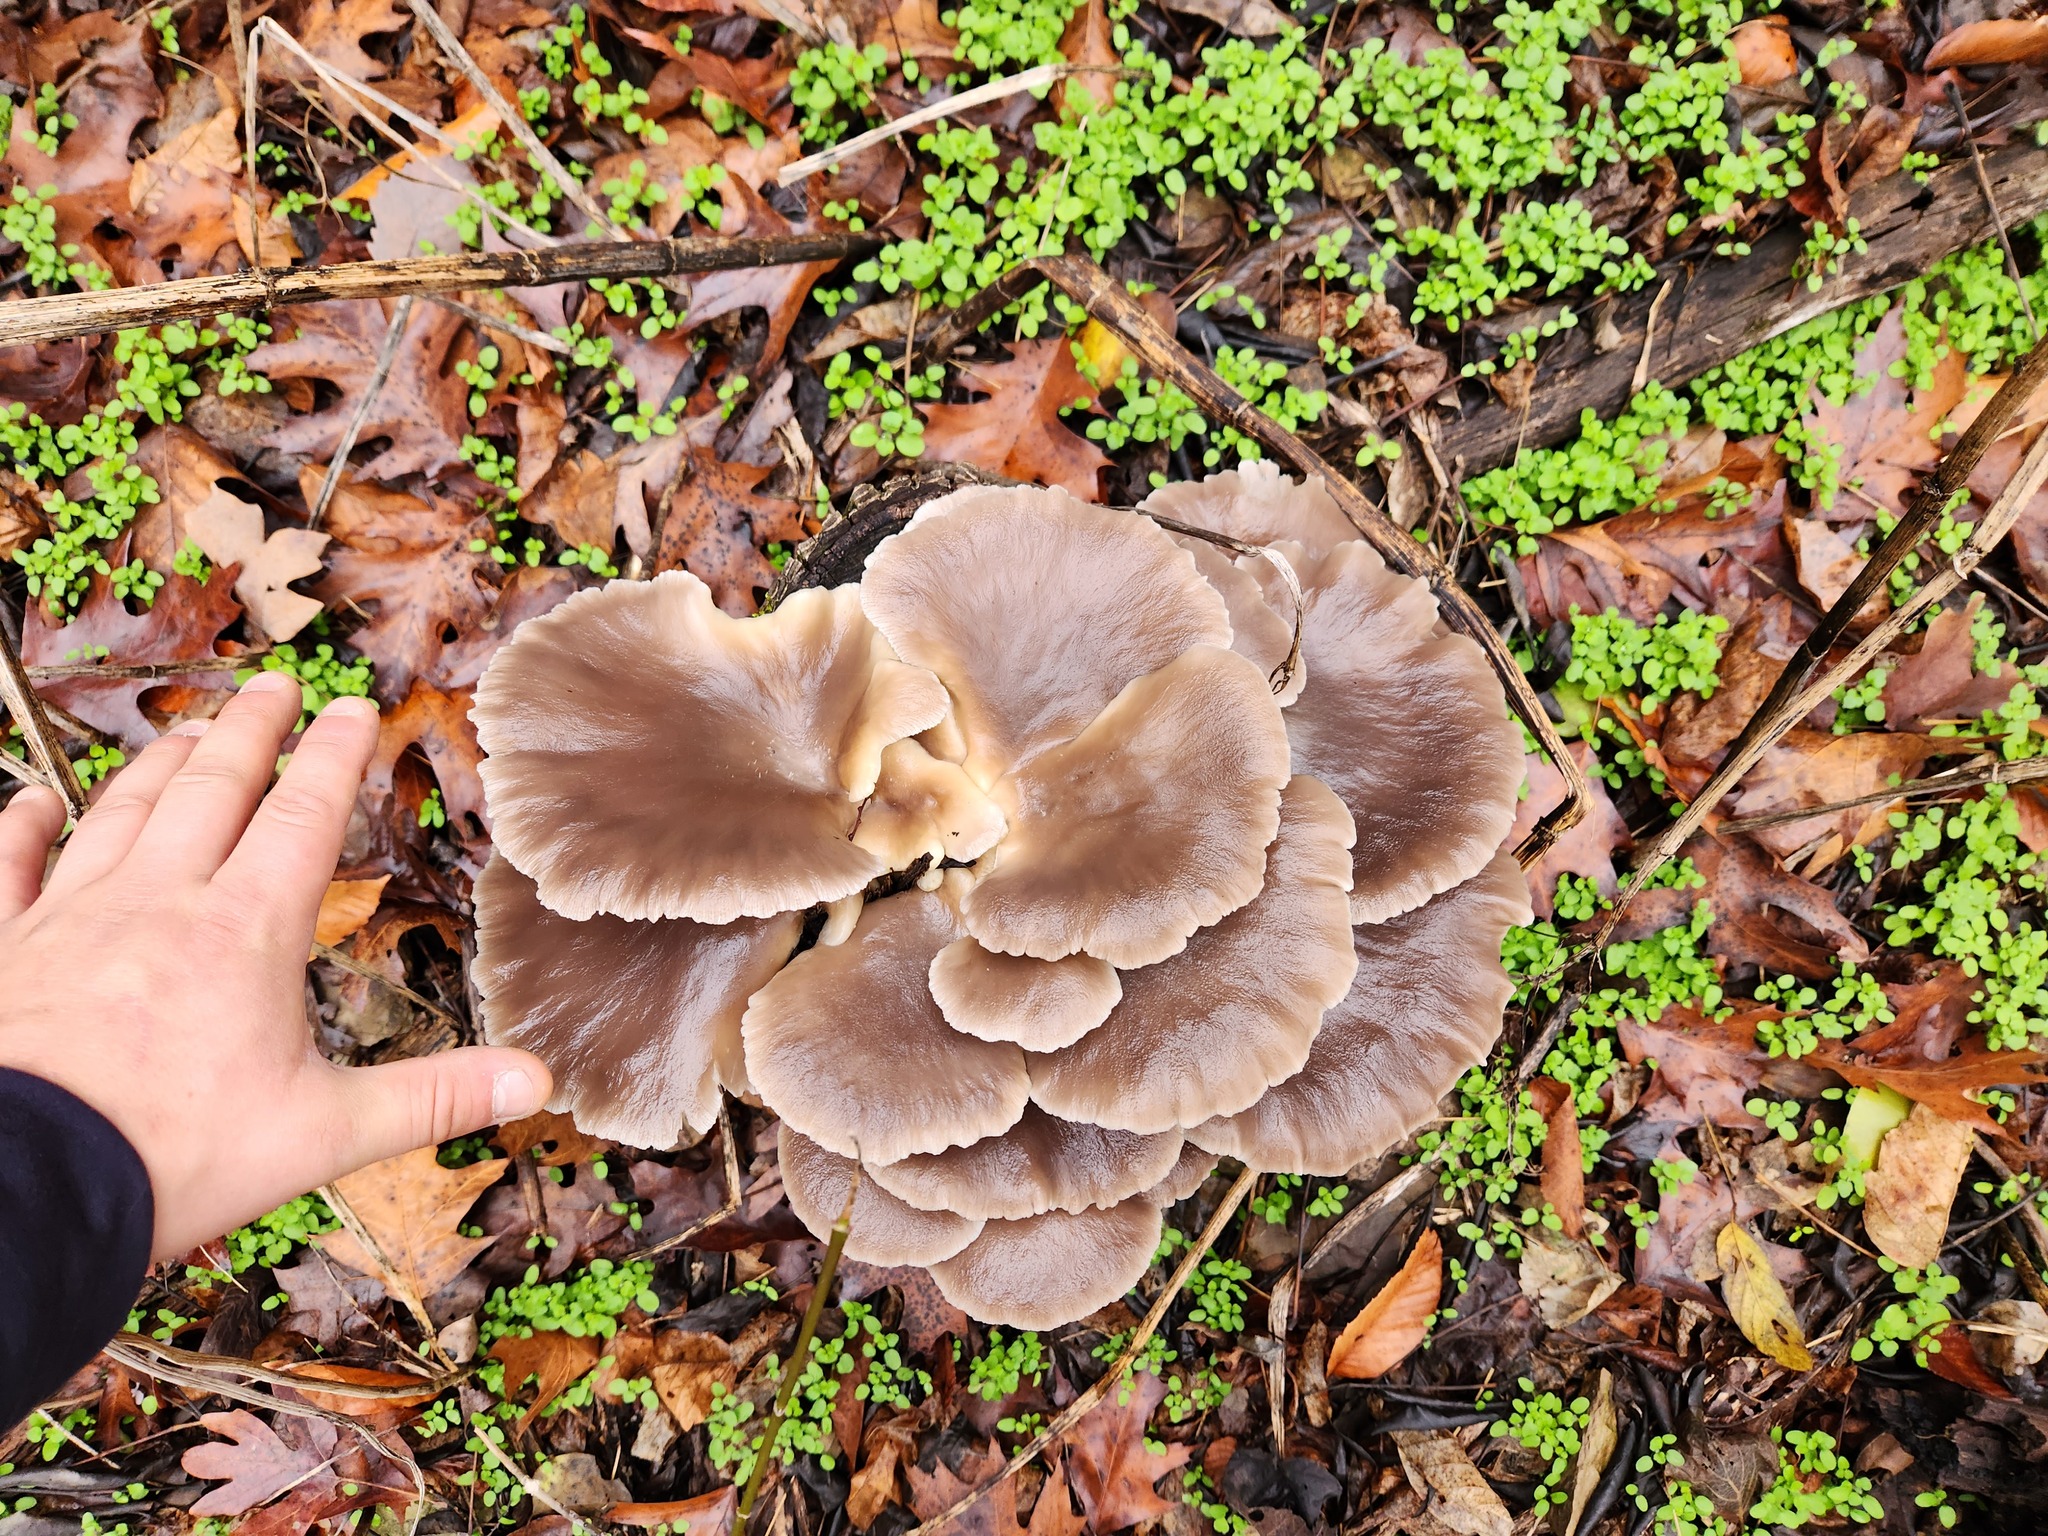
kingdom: Fungi
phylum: Basidiomycota
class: Agaricomycetes
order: Agaricales
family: Pleurotaceae
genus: Pleurotus
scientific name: Pleurotus ostreatus
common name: Oyster mushroom
